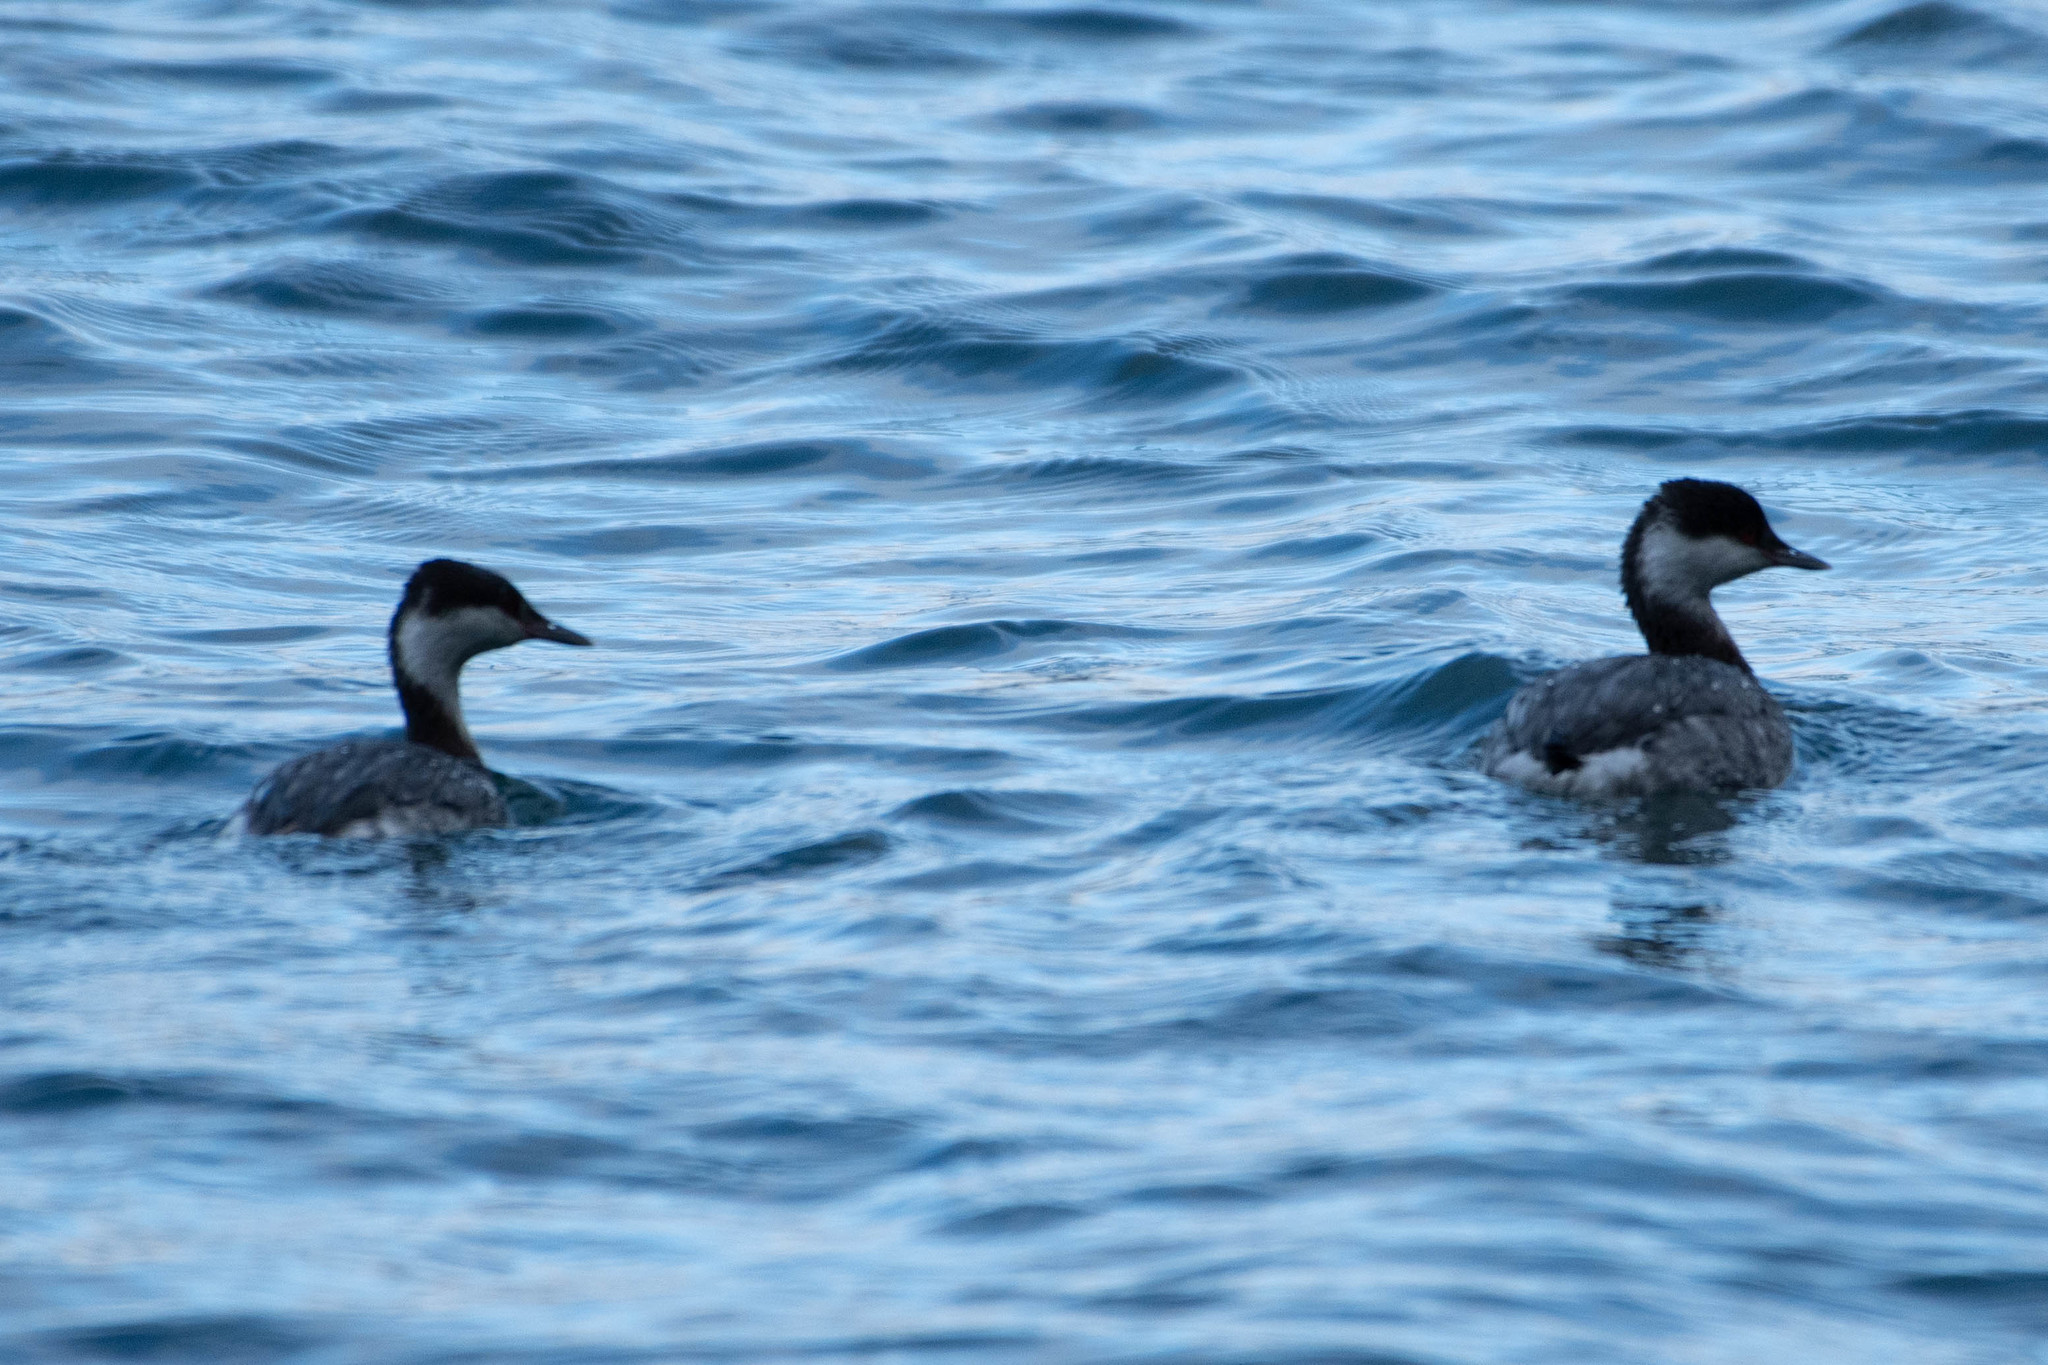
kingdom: Animalia
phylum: Chordata
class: Aves
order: Podicipediformes
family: Podicipedidae
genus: Podiceps
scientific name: Podiceps auritus
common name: Horned grebe
